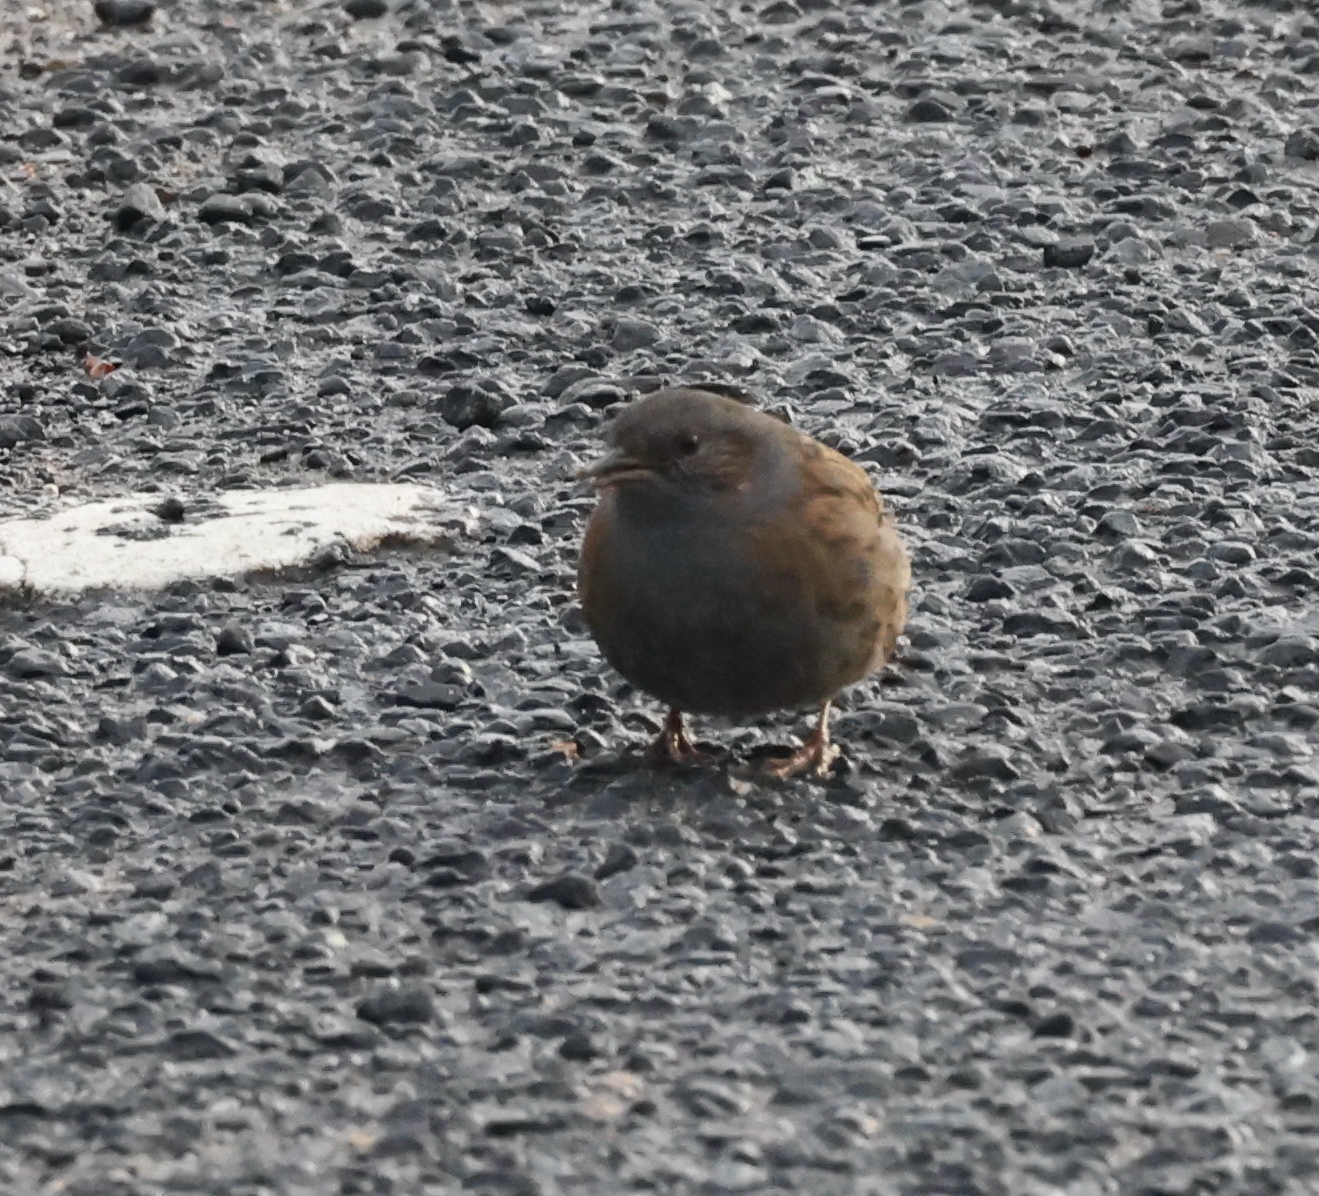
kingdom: Animalia
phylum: Chordata
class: Aves
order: Passeriformes
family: Prunellidae
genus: Prunella
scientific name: Prunella modularis
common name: Dunnock
